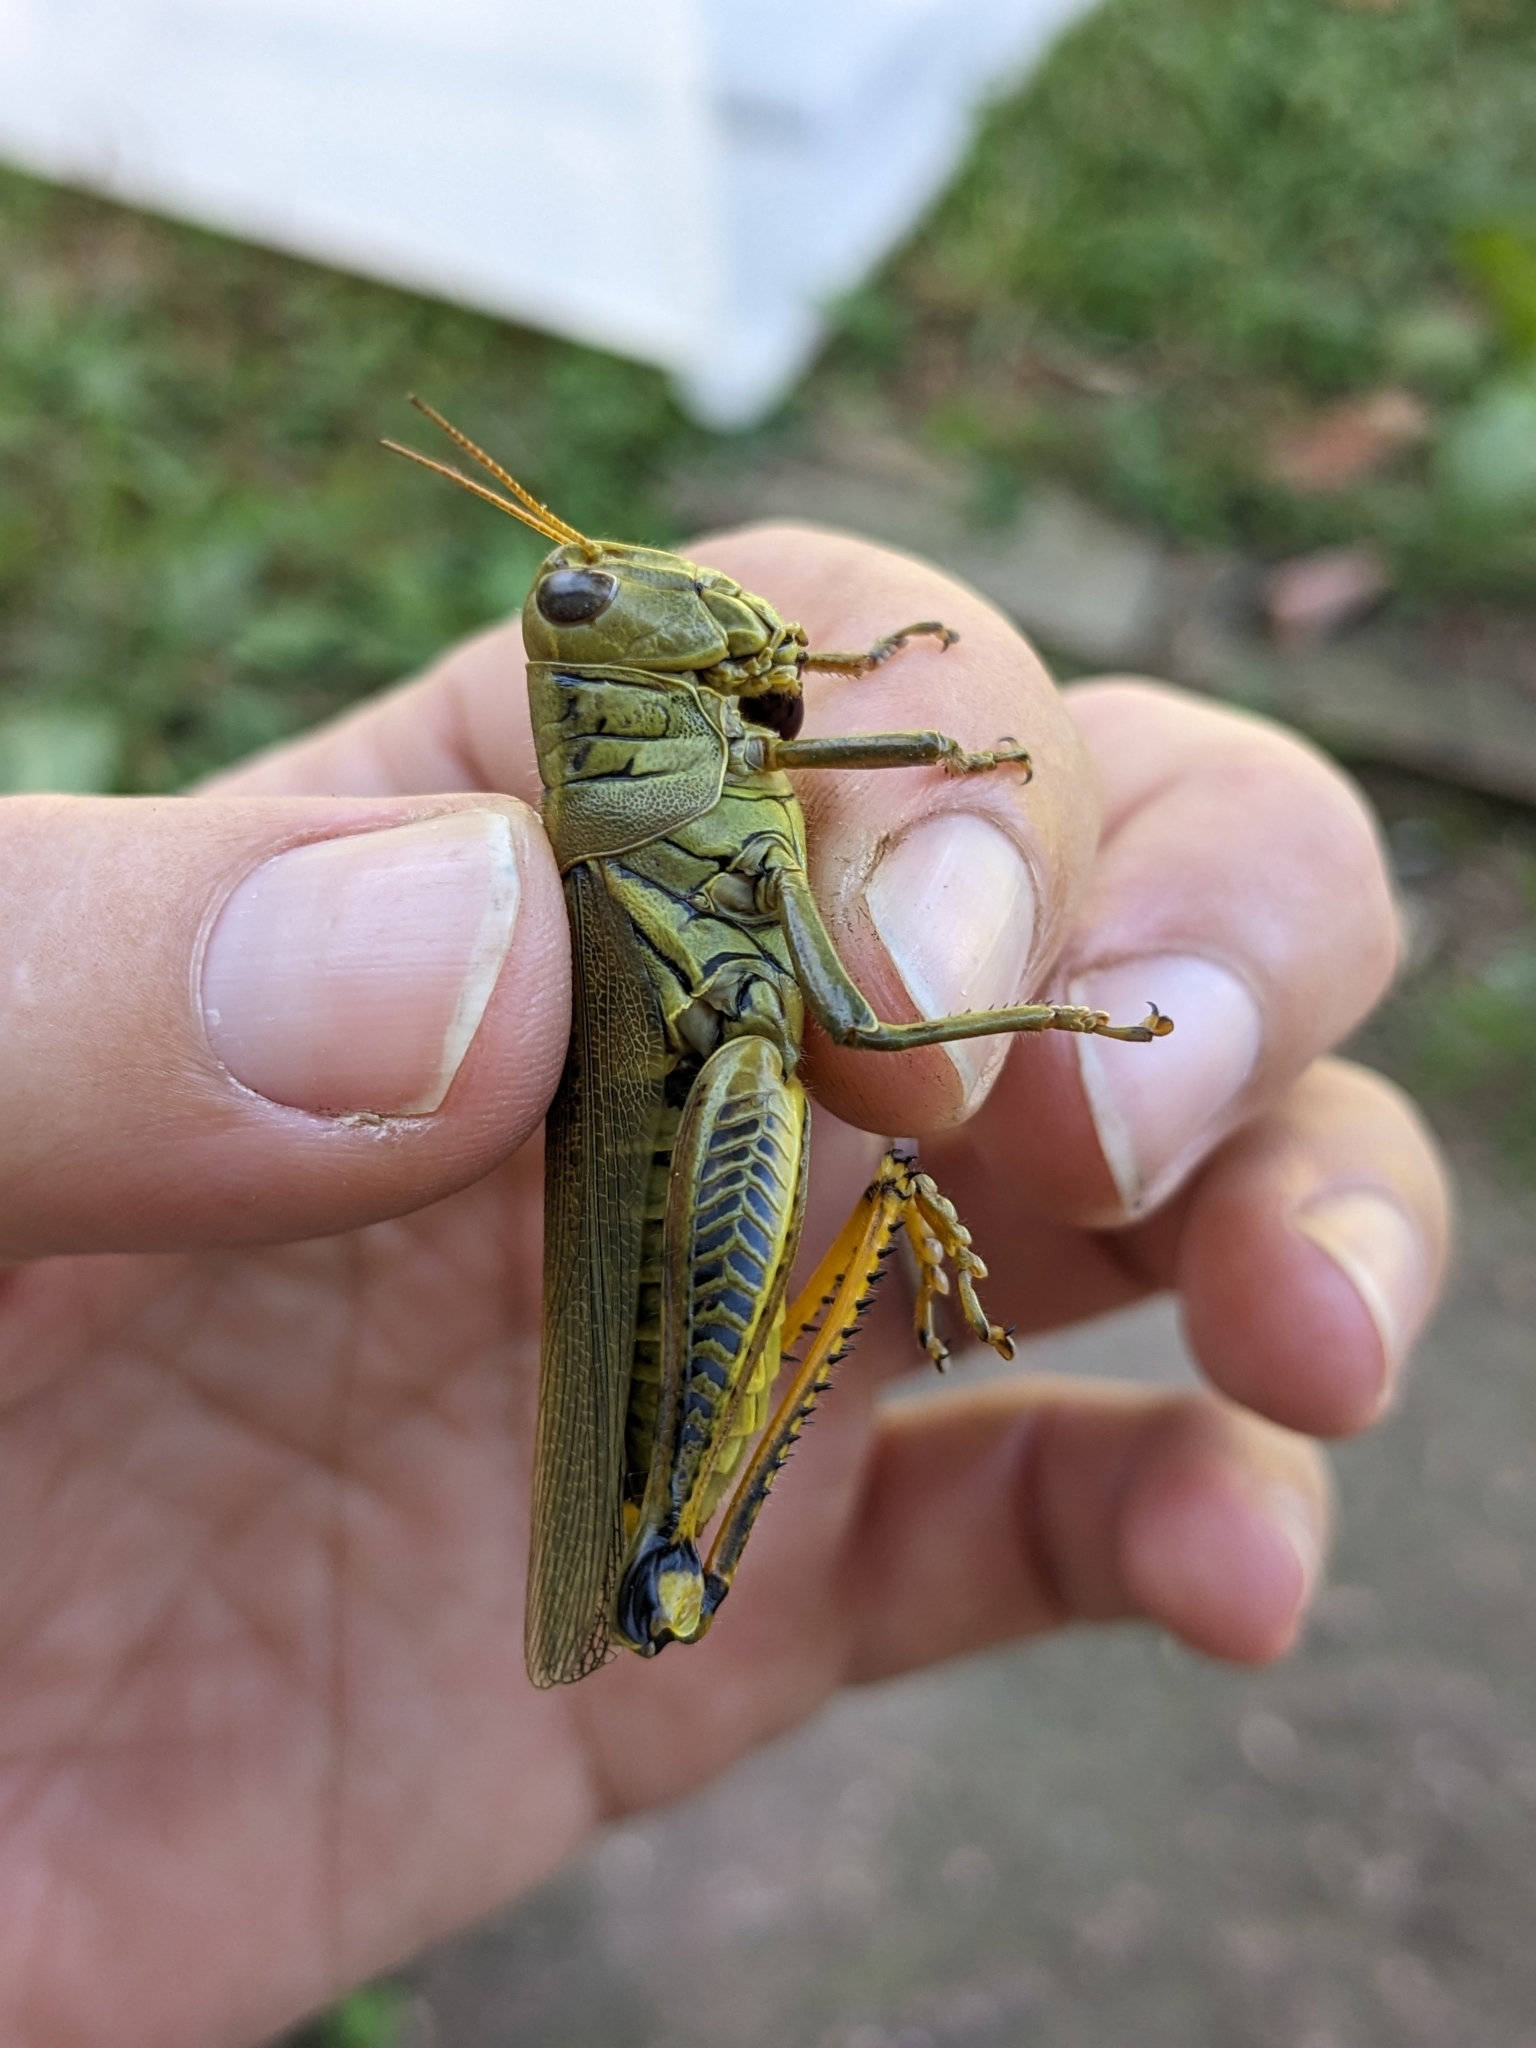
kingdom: Animalia
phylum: Arthropoda
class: Insecta
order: Orthoptera
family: Acrididae
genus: Melanoplus
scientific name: Melanoplus differentialis
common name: Differential grasshopper
